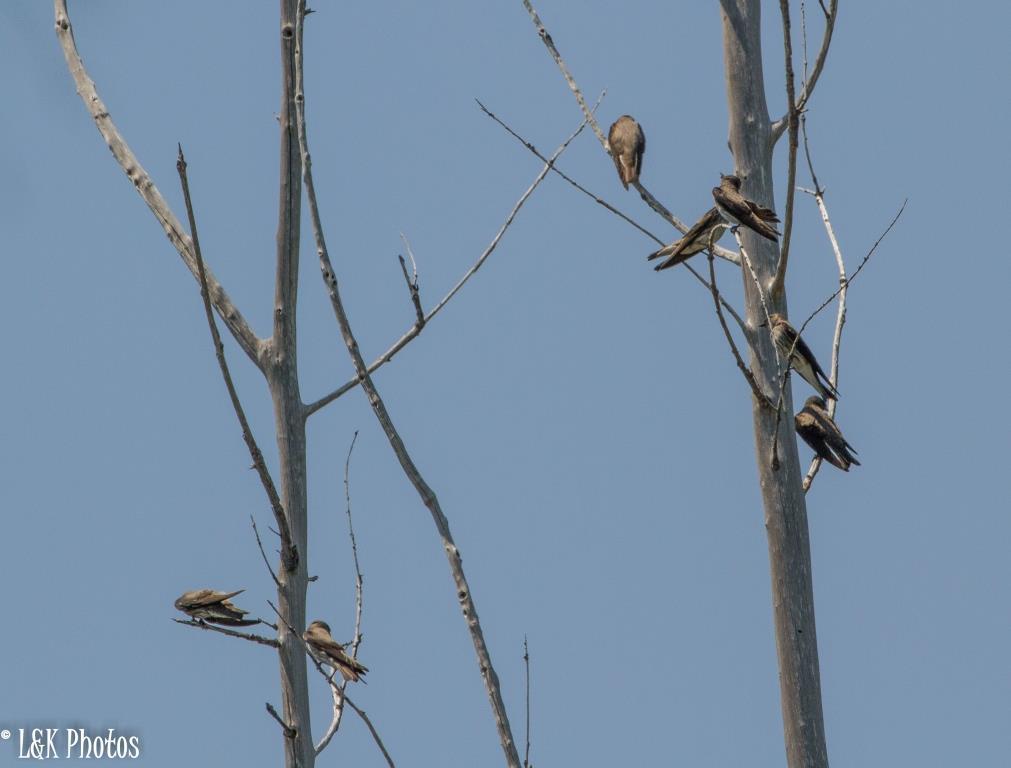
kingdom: Animalia
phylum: Chordata
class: Aves
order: Passeriformes
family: Hirundinidae
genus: Phedina
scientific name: Phedina borbonica
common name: Mascarene martin
